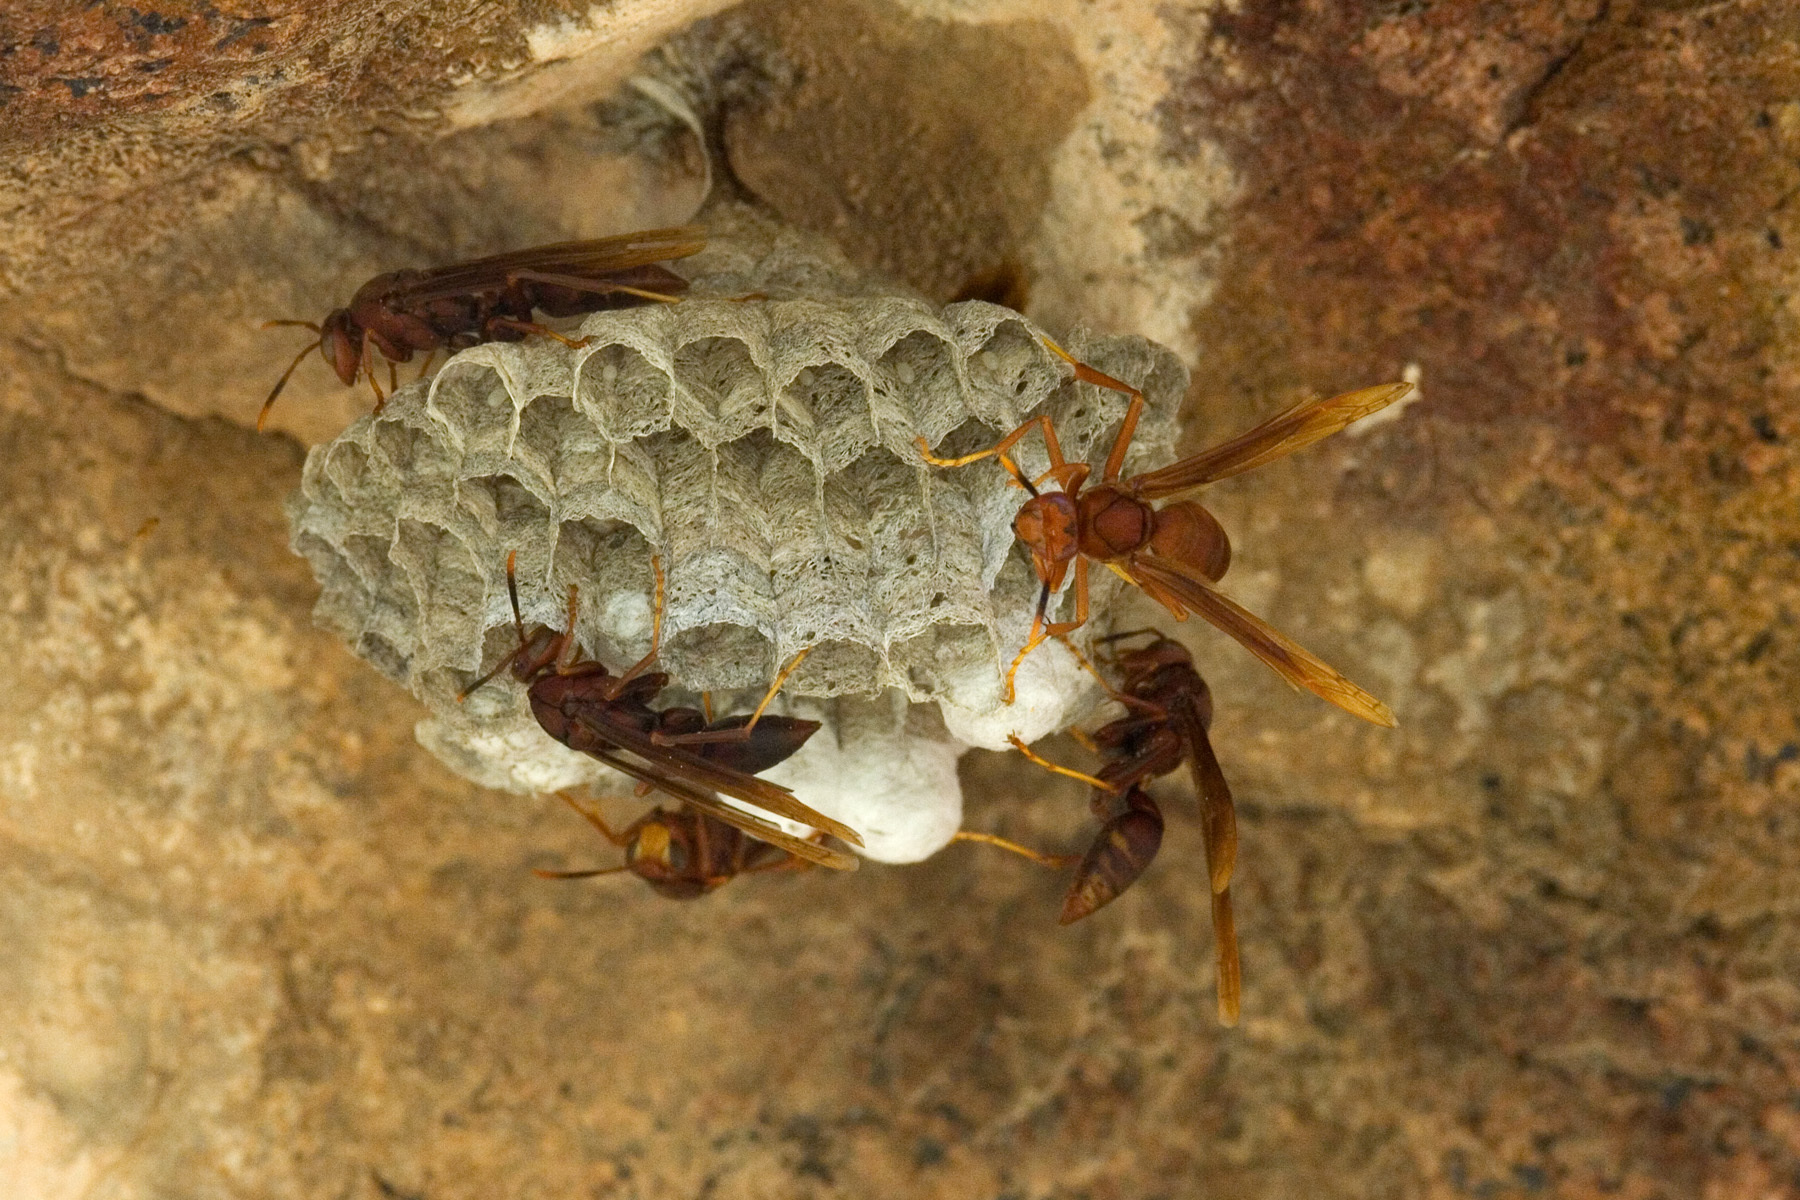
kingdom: Animalia
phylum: Arthropoda
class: Insecta
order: Hymenoptera
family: Eumenidae
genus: Polistes
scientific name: Polistes major
